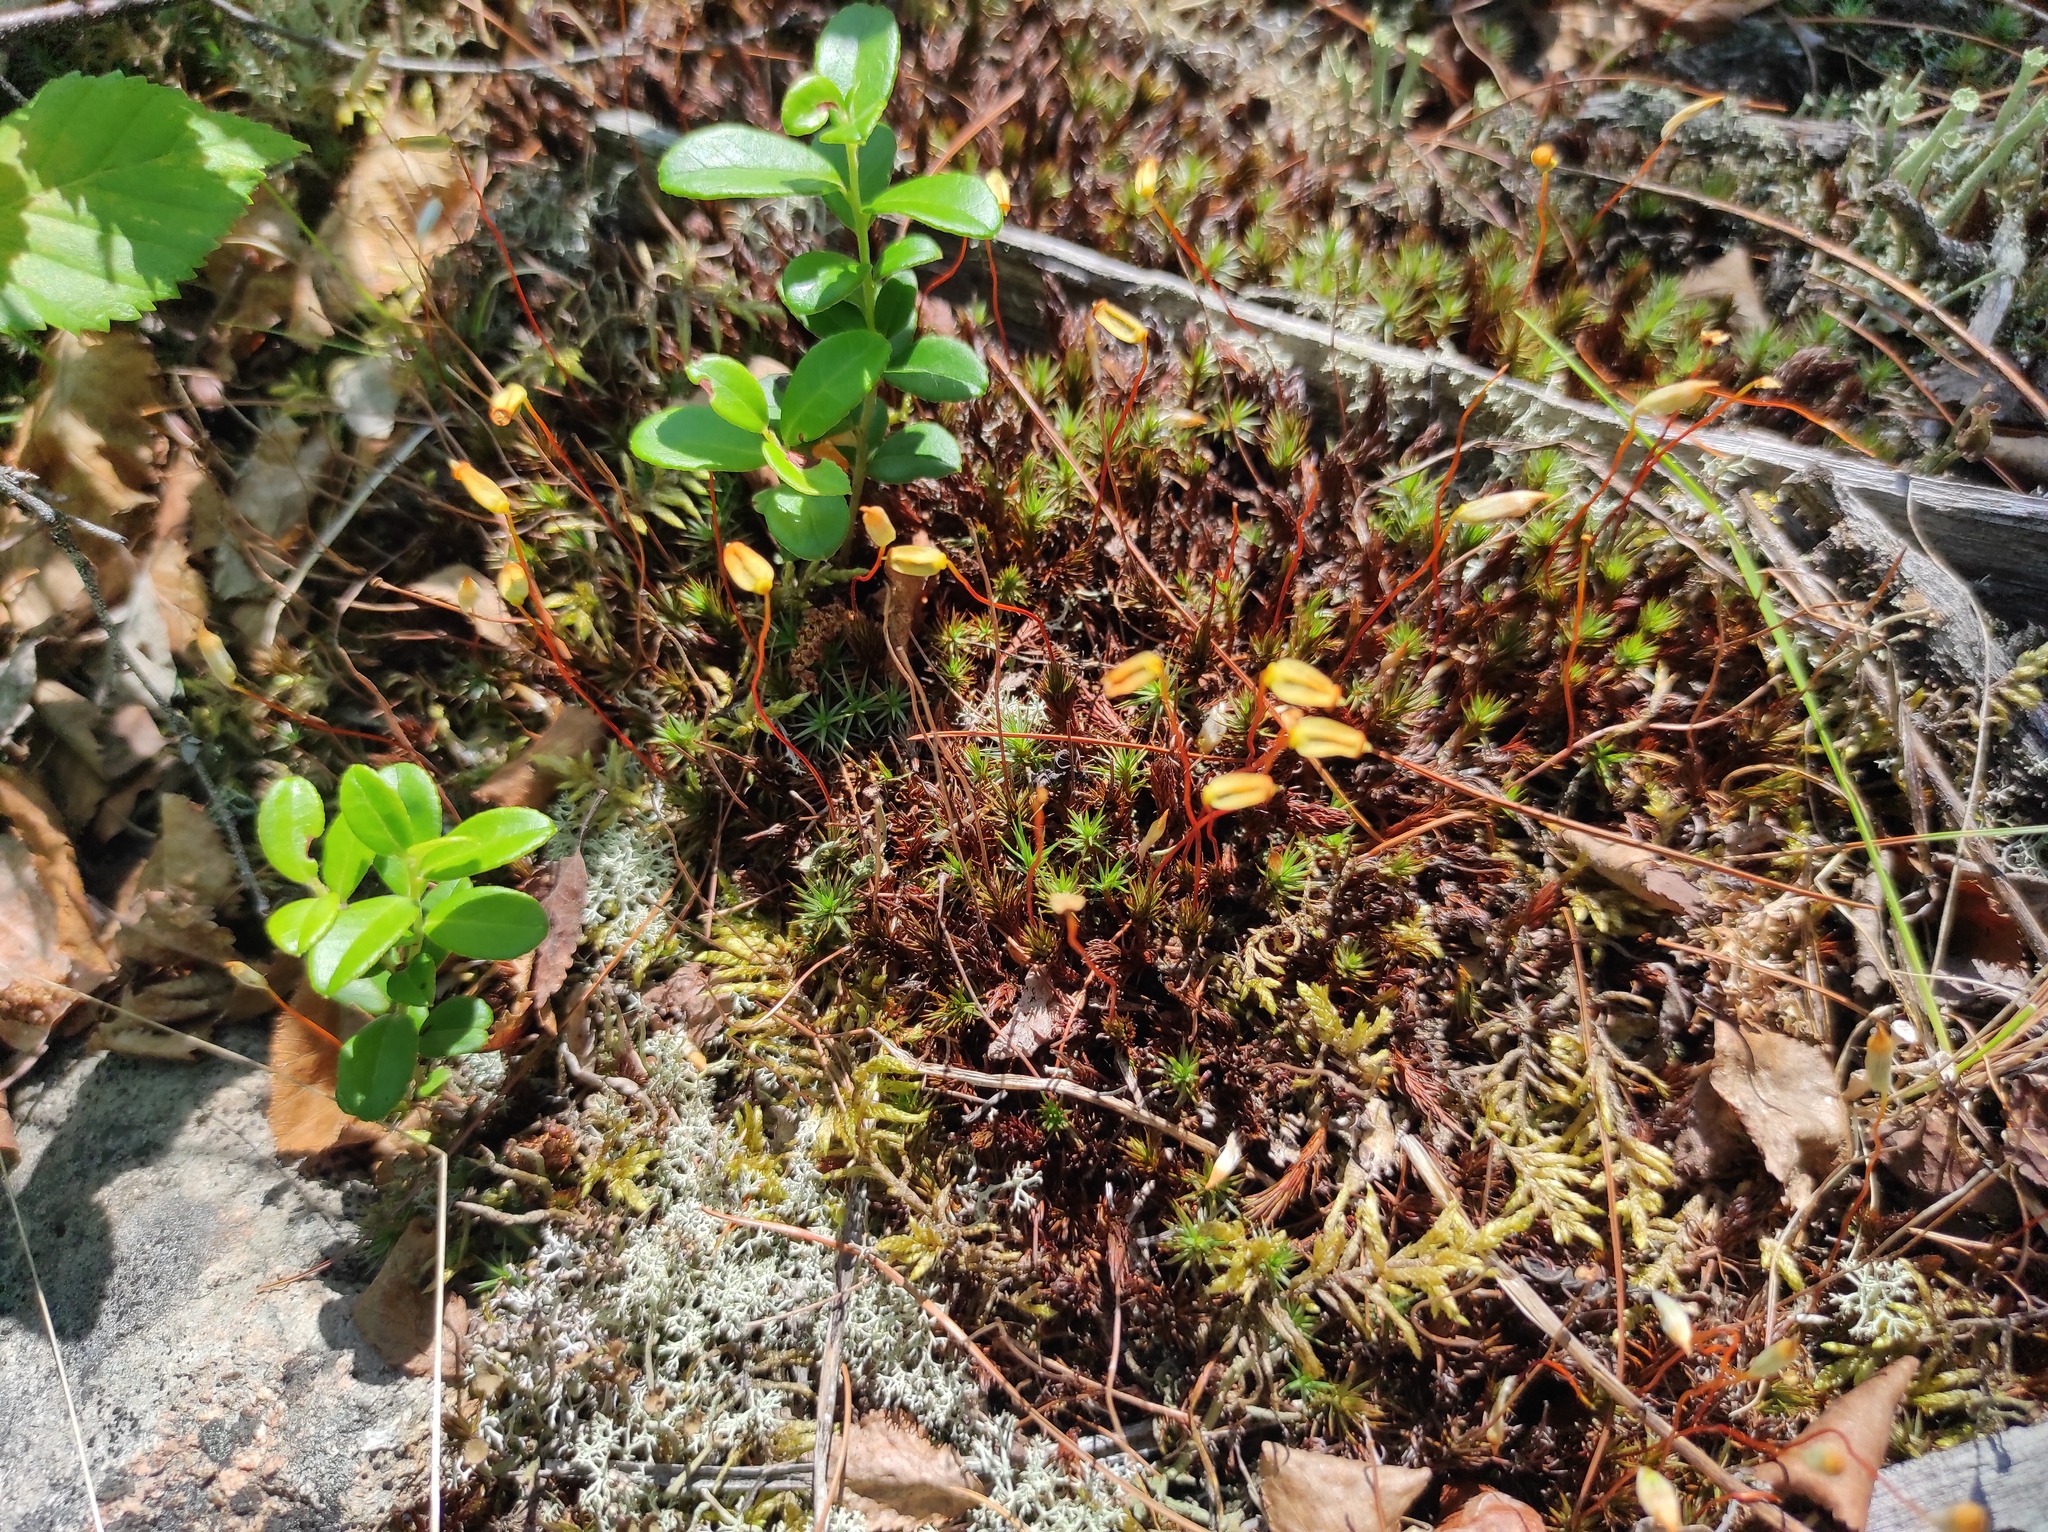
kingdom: Plantae
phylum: Tracheophyta
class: Magnoliopsida
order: Ericales
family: Ericaceae
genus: Vaccinium
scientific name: Vaccinium vitis-idaea
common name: Cowberry
